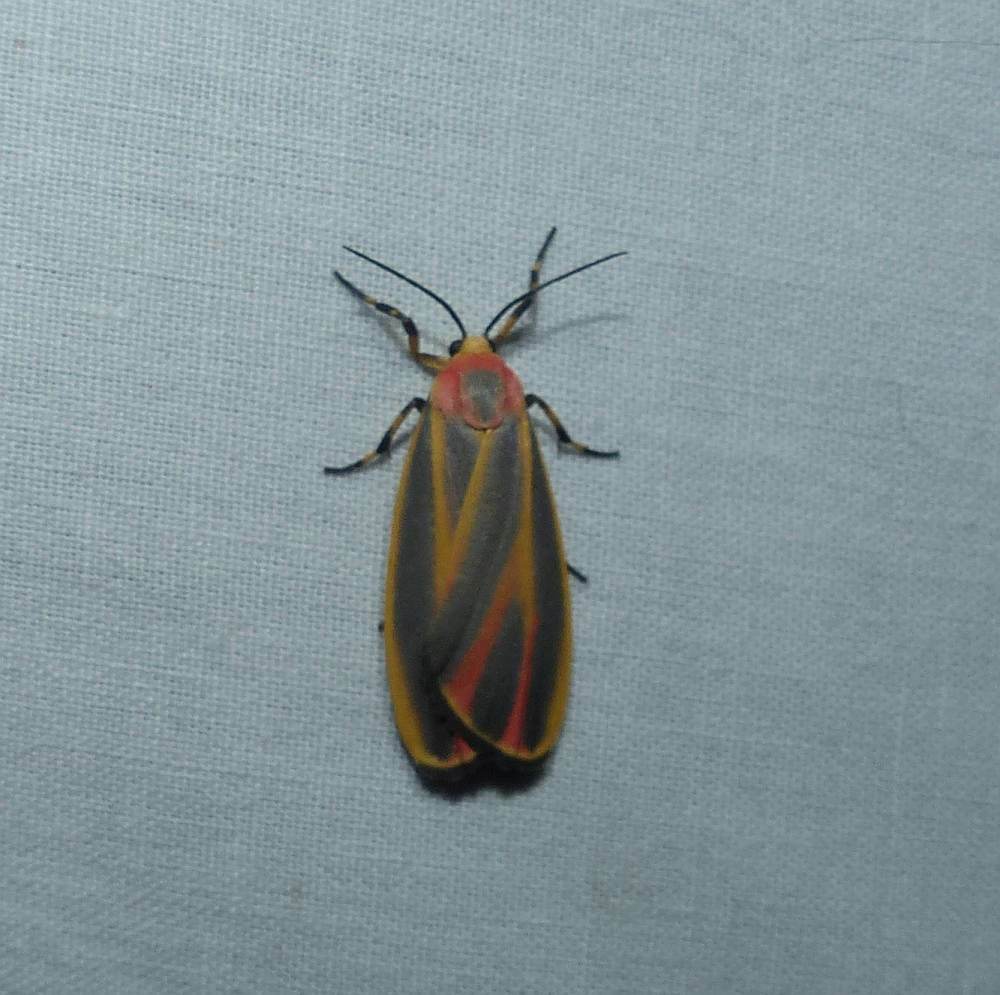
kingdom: Animalia
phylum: Arthropoda
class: Insecta
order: Lepidoptera
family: Erebidae
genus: Hypoprepia
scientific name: Hypoprepia fucosa
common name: Painted lichen moth
